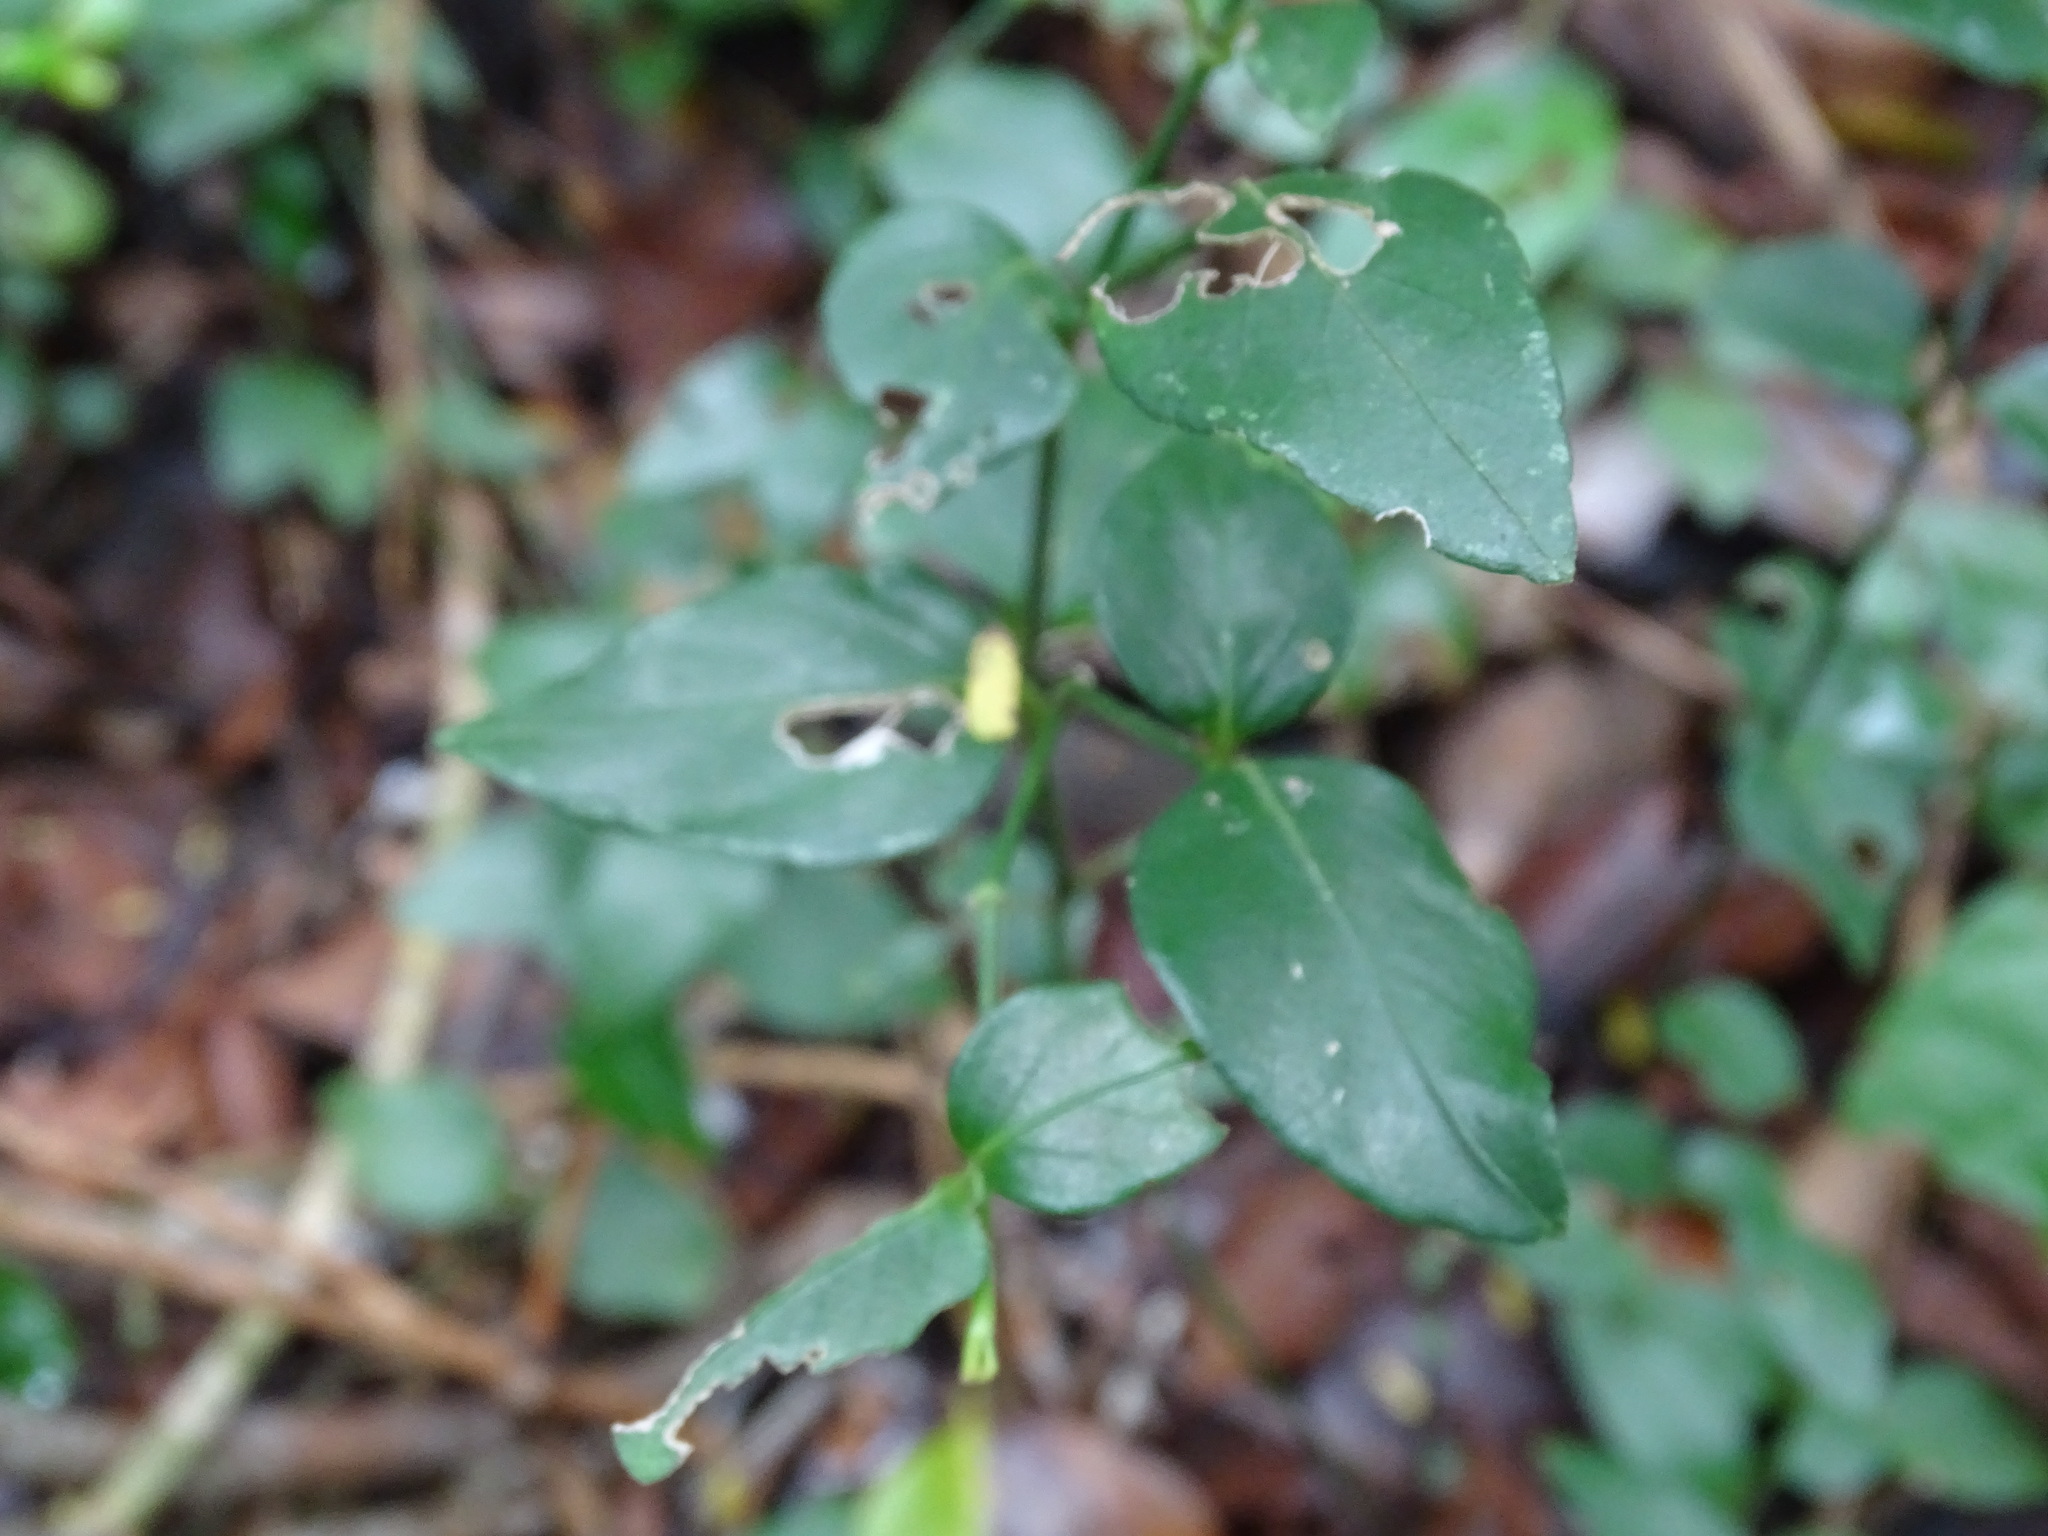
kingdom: Plantae
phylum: Tracheophyta
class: Magnoliopsida
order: Lamiales
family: Acanthaceae
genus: Justicia
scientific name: Justicia cobensis
